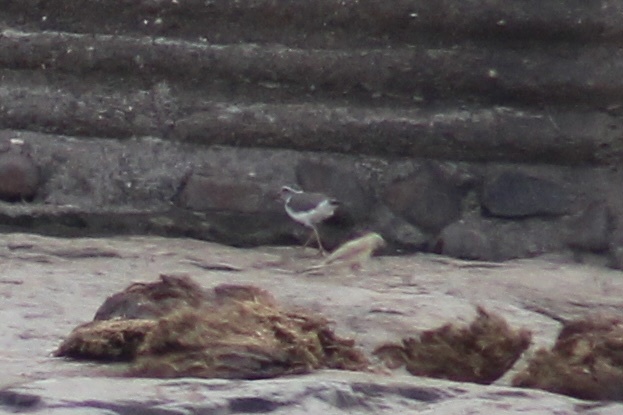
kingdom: Animalia
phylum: Chordata
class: Aves
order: Charadriiformes
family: Charadriidae
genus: Charadrius
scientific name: Charadrius tricollaris
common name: Three-banded plover
